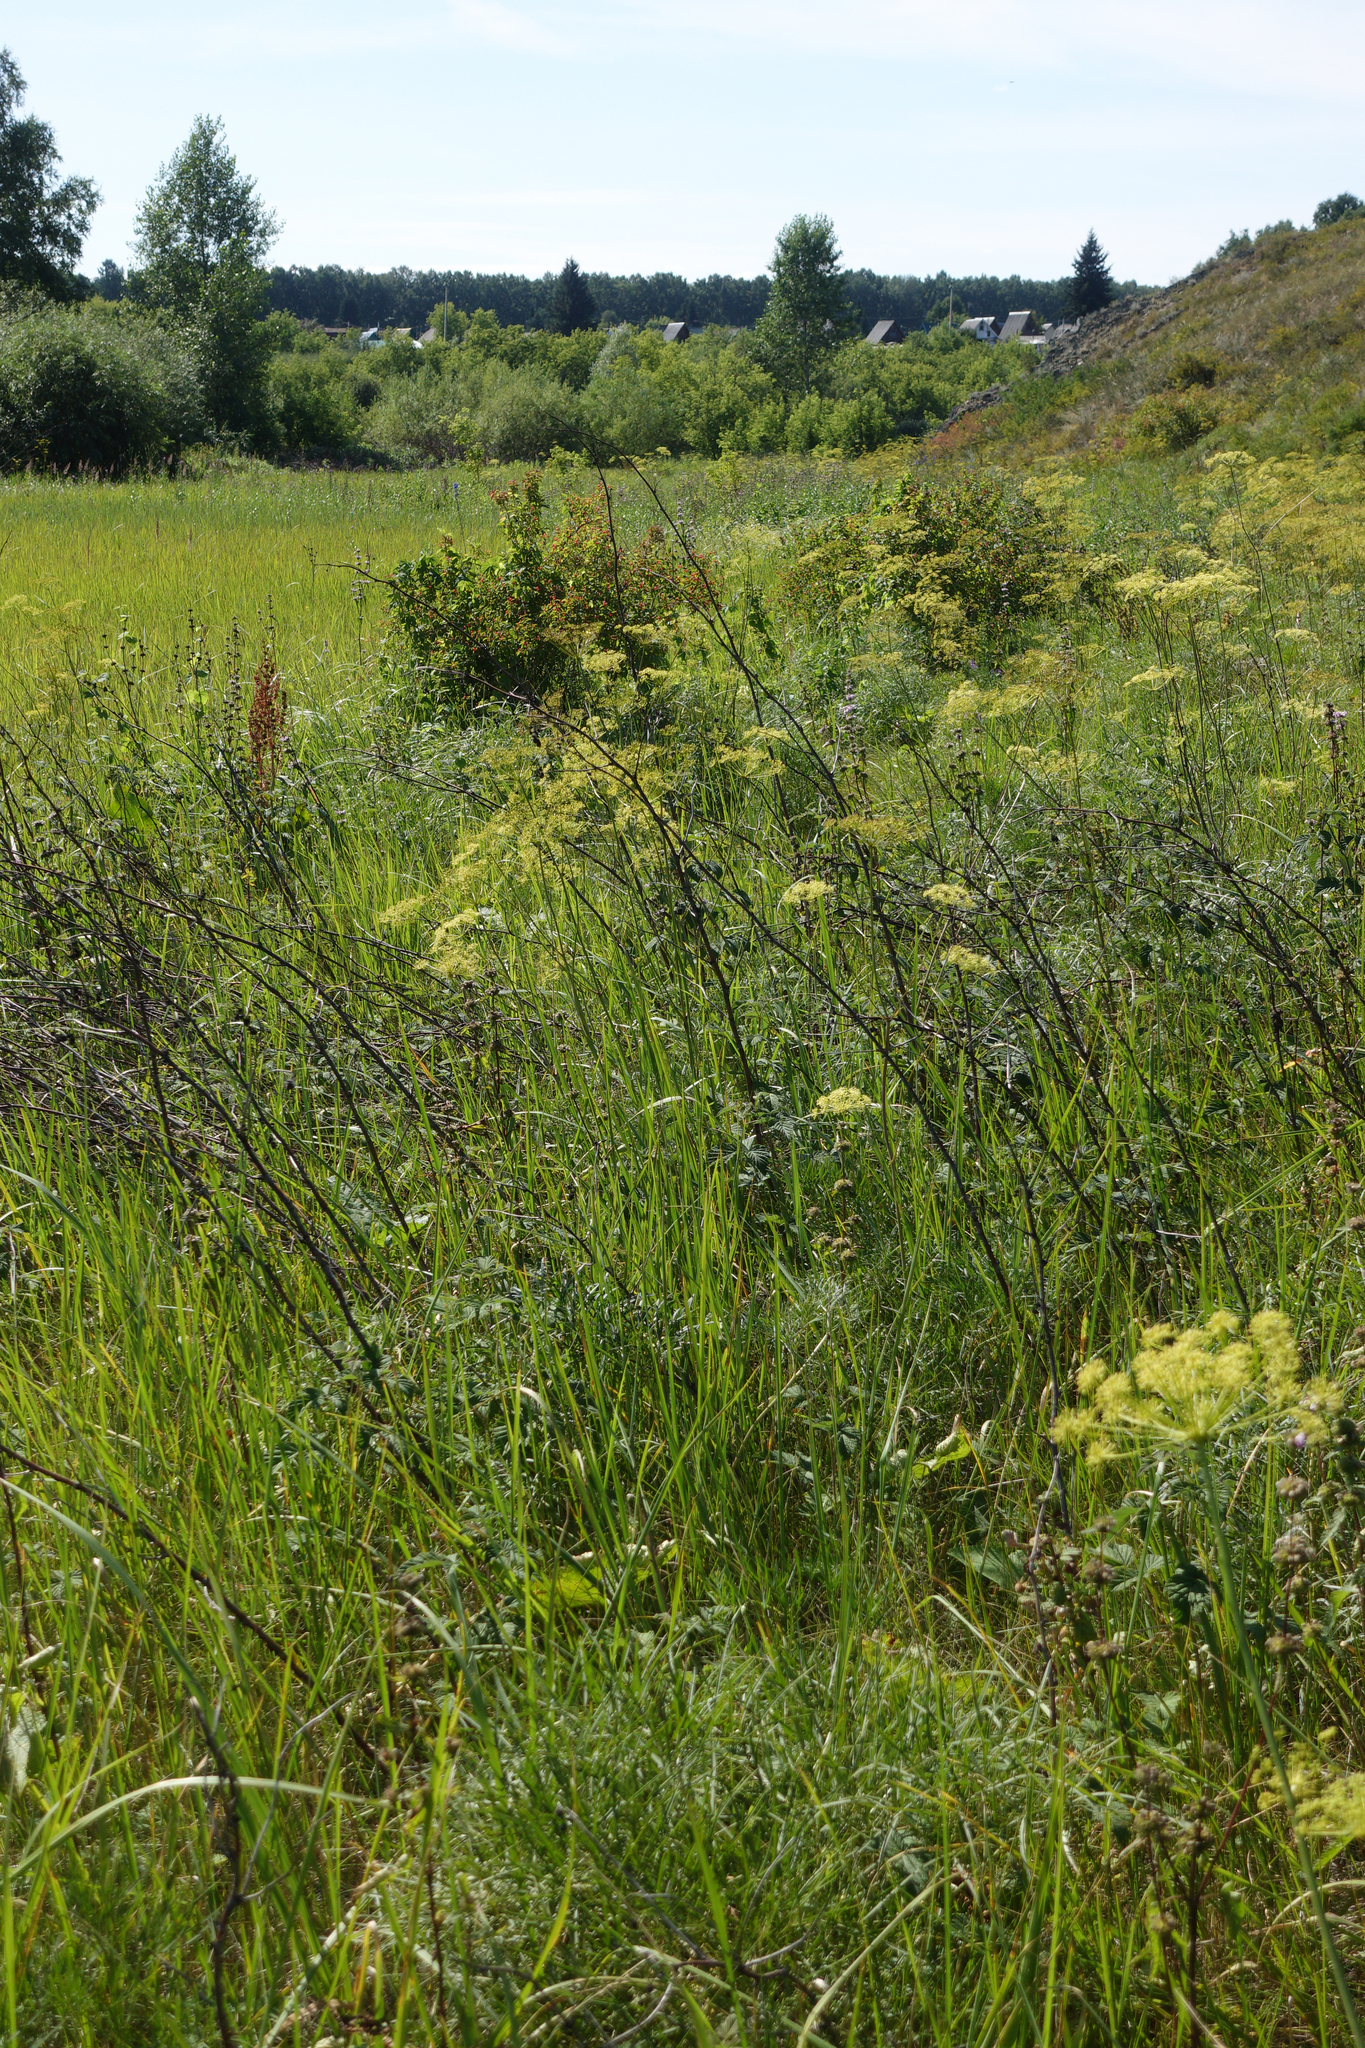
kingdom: Plantae
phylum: Tracheophyta
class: Magnoliopsida
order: Apiales
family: Apiaceae
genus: Peucedanum
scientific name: Peucedanum morisonii
